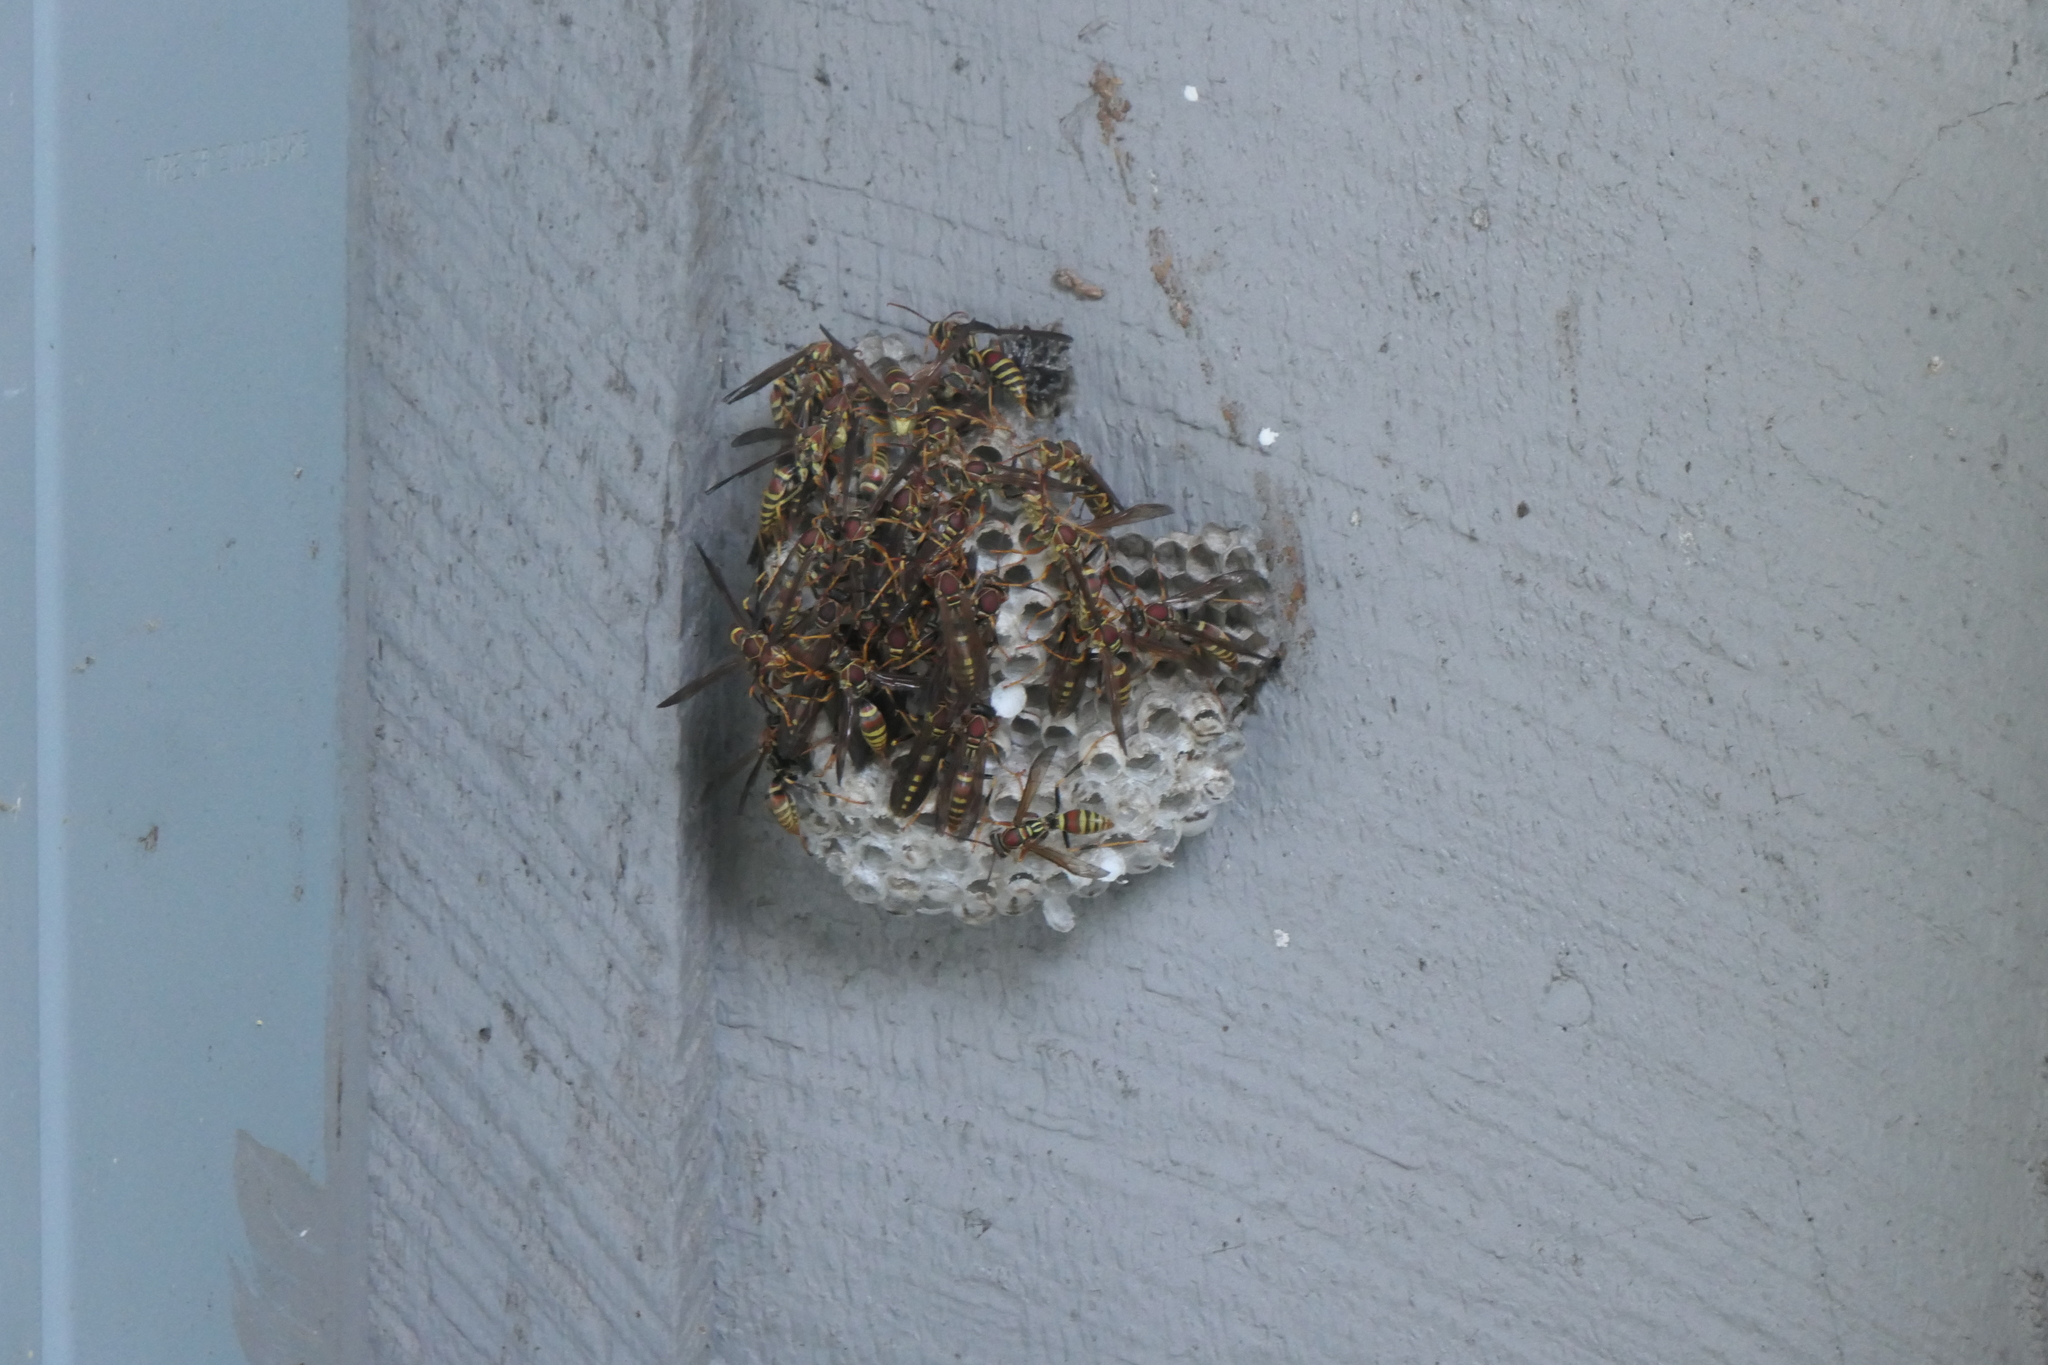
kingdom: Animalia
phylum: Arthropoda
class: Insecta
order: Hymenoptera
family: Eumenidae
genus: Polistes
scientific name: Polistes exclamans
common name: Paper wasp
